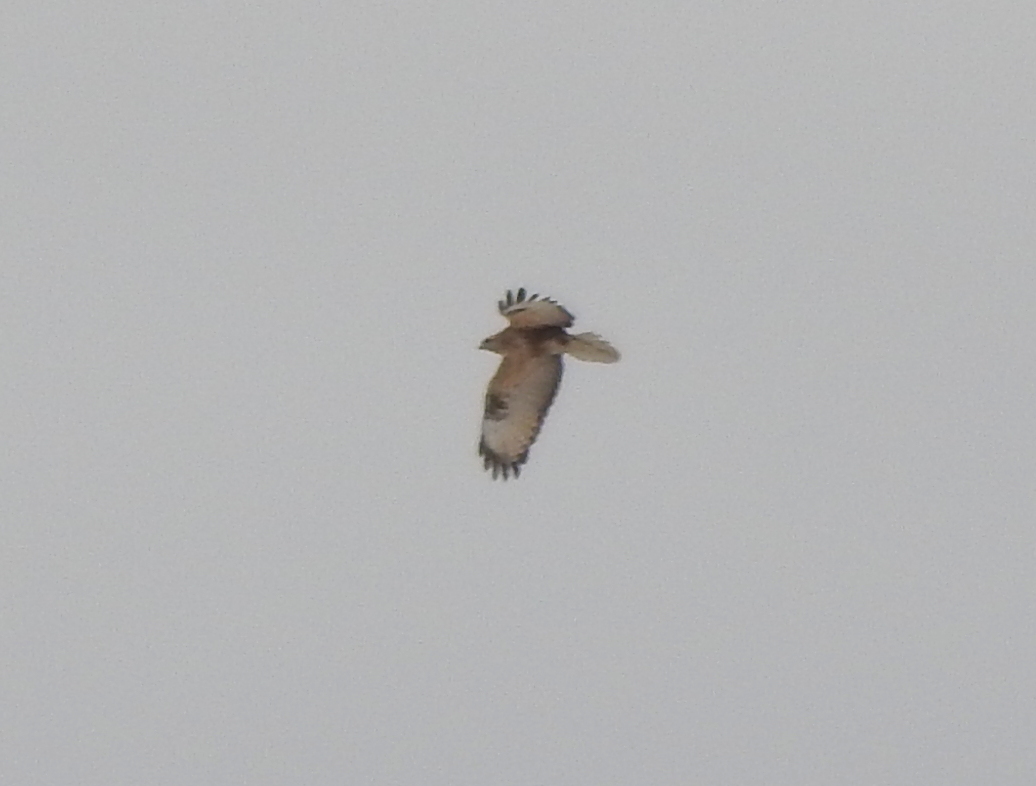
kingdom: Animalia
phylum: Chordata
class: Aves
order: Accipitriformes
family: Accipitridae
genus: Buteo
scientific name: Buteo hemilasius
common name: Upland buzzard
